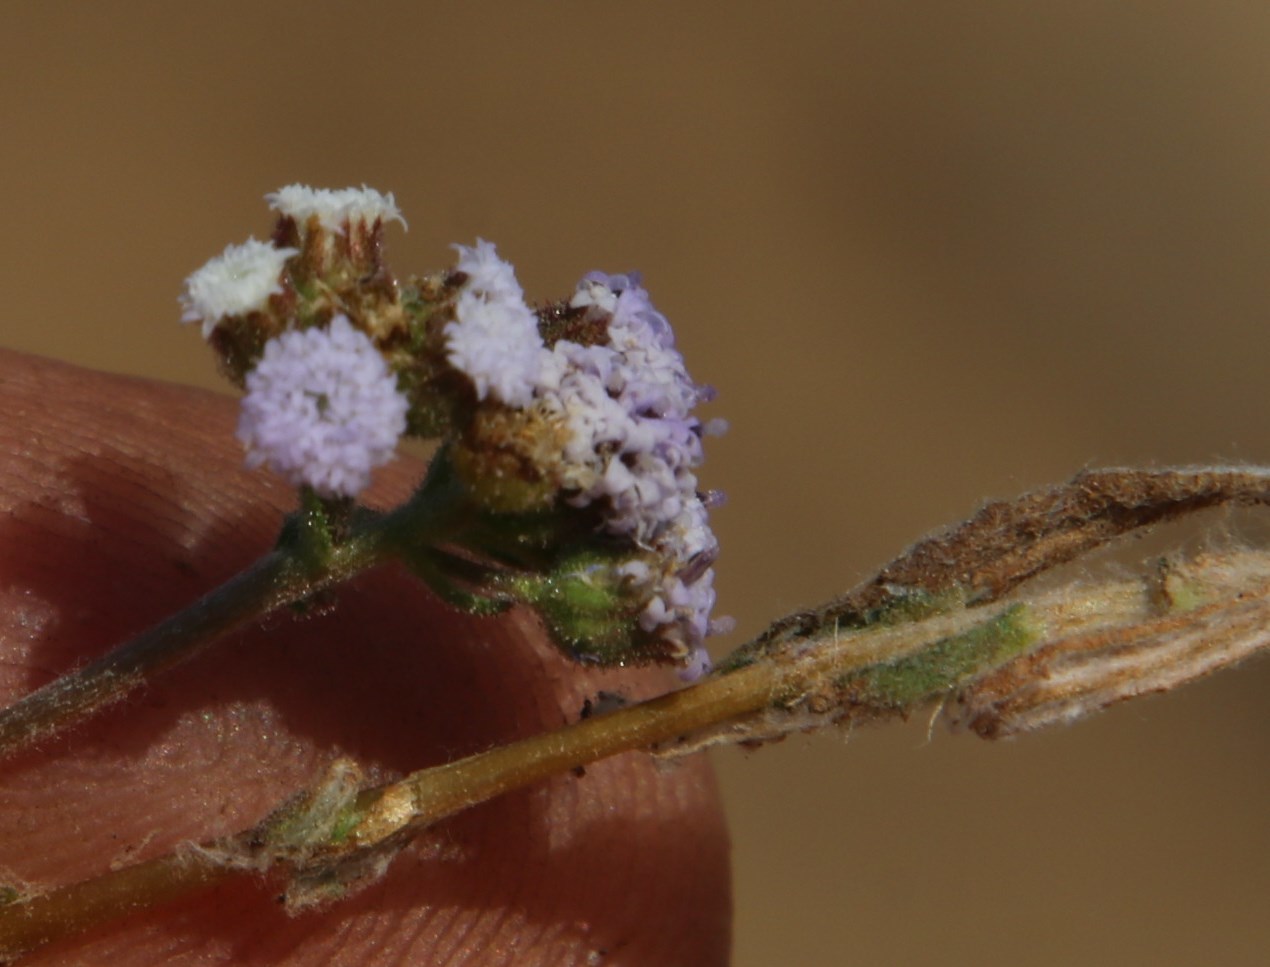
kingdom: Plantae
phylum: Tracheophyta
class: Magnoliopsida
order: Asterales
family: Asteraceae
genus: Denekia
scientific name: Denekia capensis
